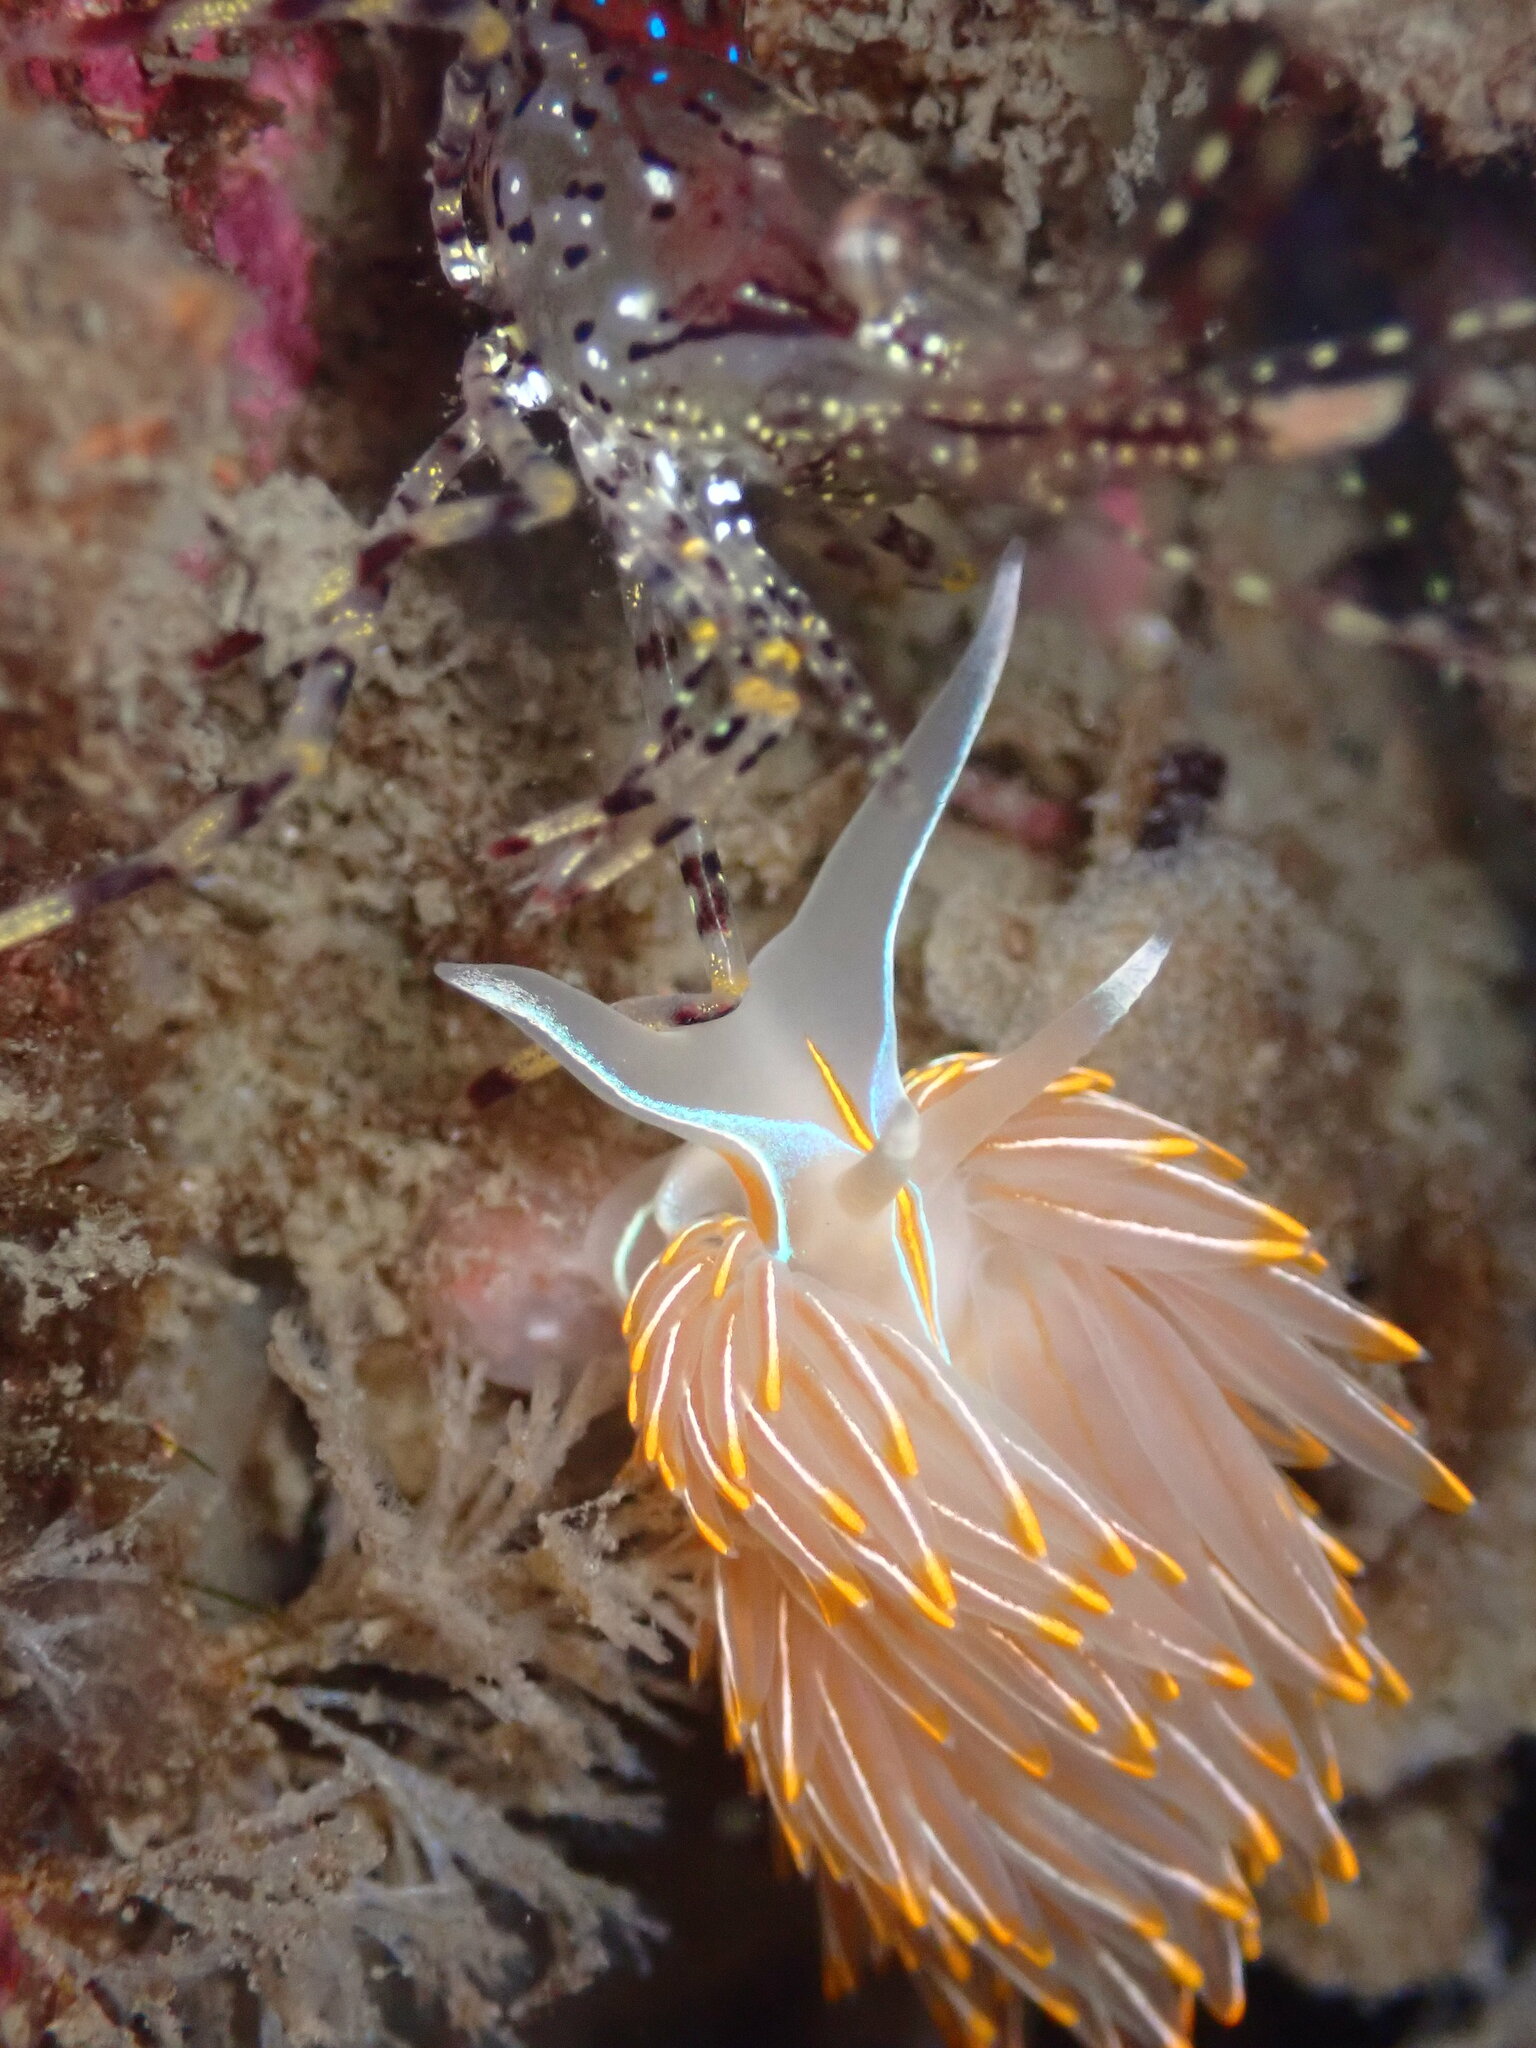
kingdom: Animalia
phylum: Mollusca
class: Gastropoda
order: Nudibranchia
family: Myrrhinidae
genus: Hermissenda
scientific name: Hermissenda crassicornis
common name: Hermissenda
